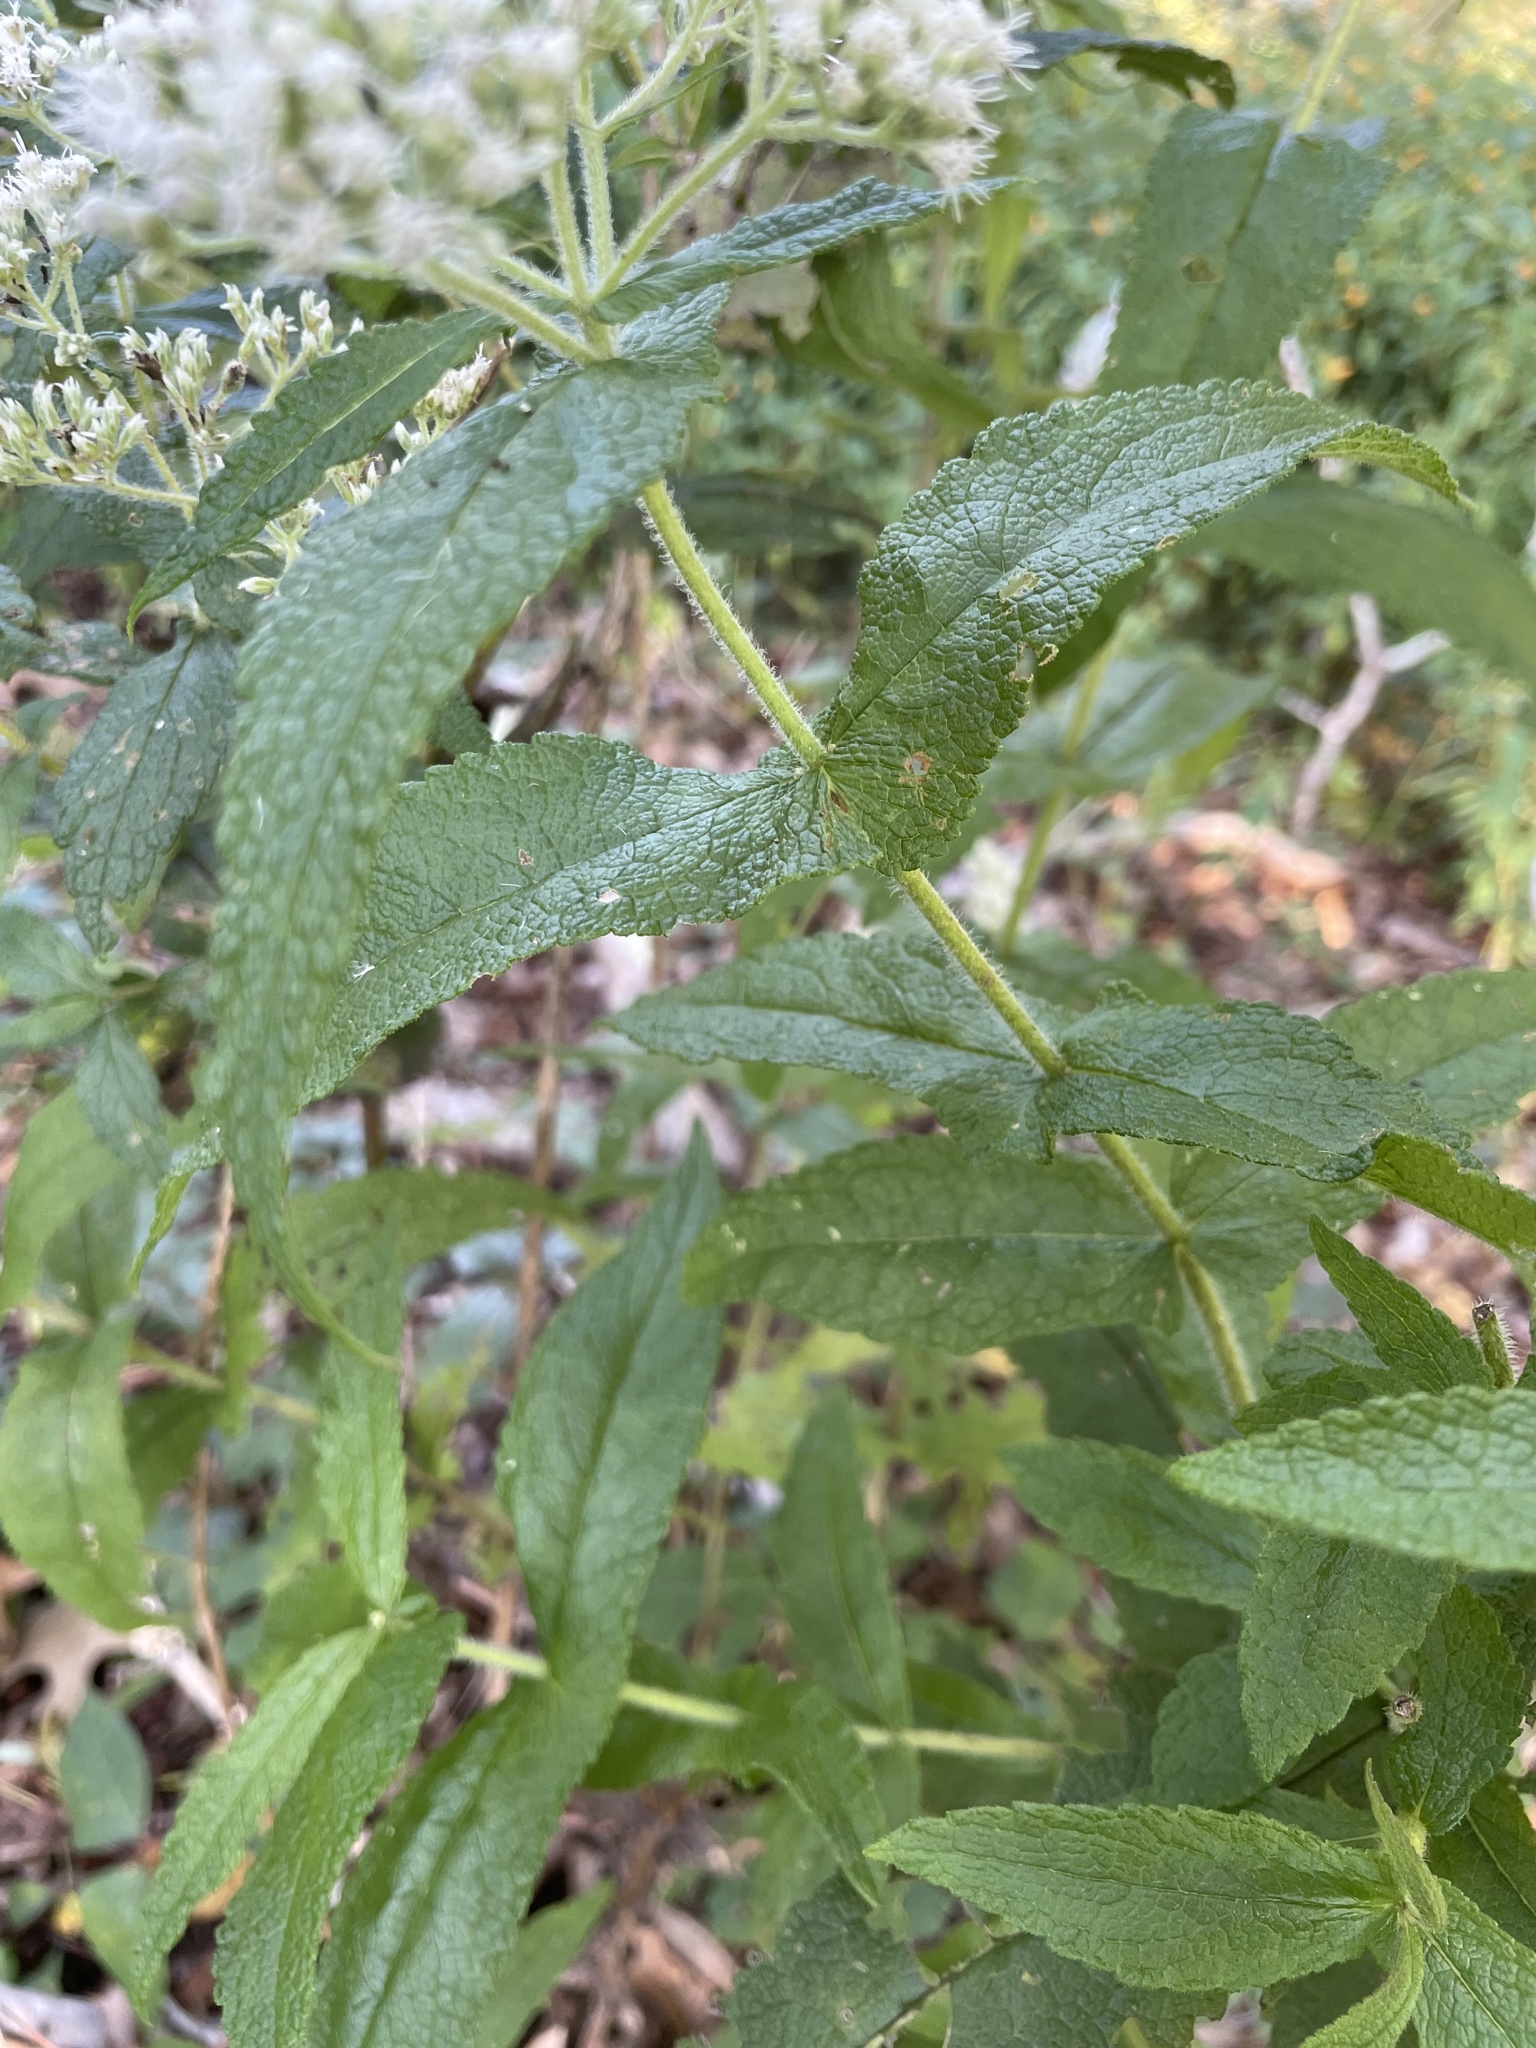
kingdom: Plantae
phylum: Tracheophyta
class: Magnoliopsida
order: Asterales
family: Asteraceae
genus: Eupatorium
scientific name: Eupatorium perfoliatum
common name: Boneset
